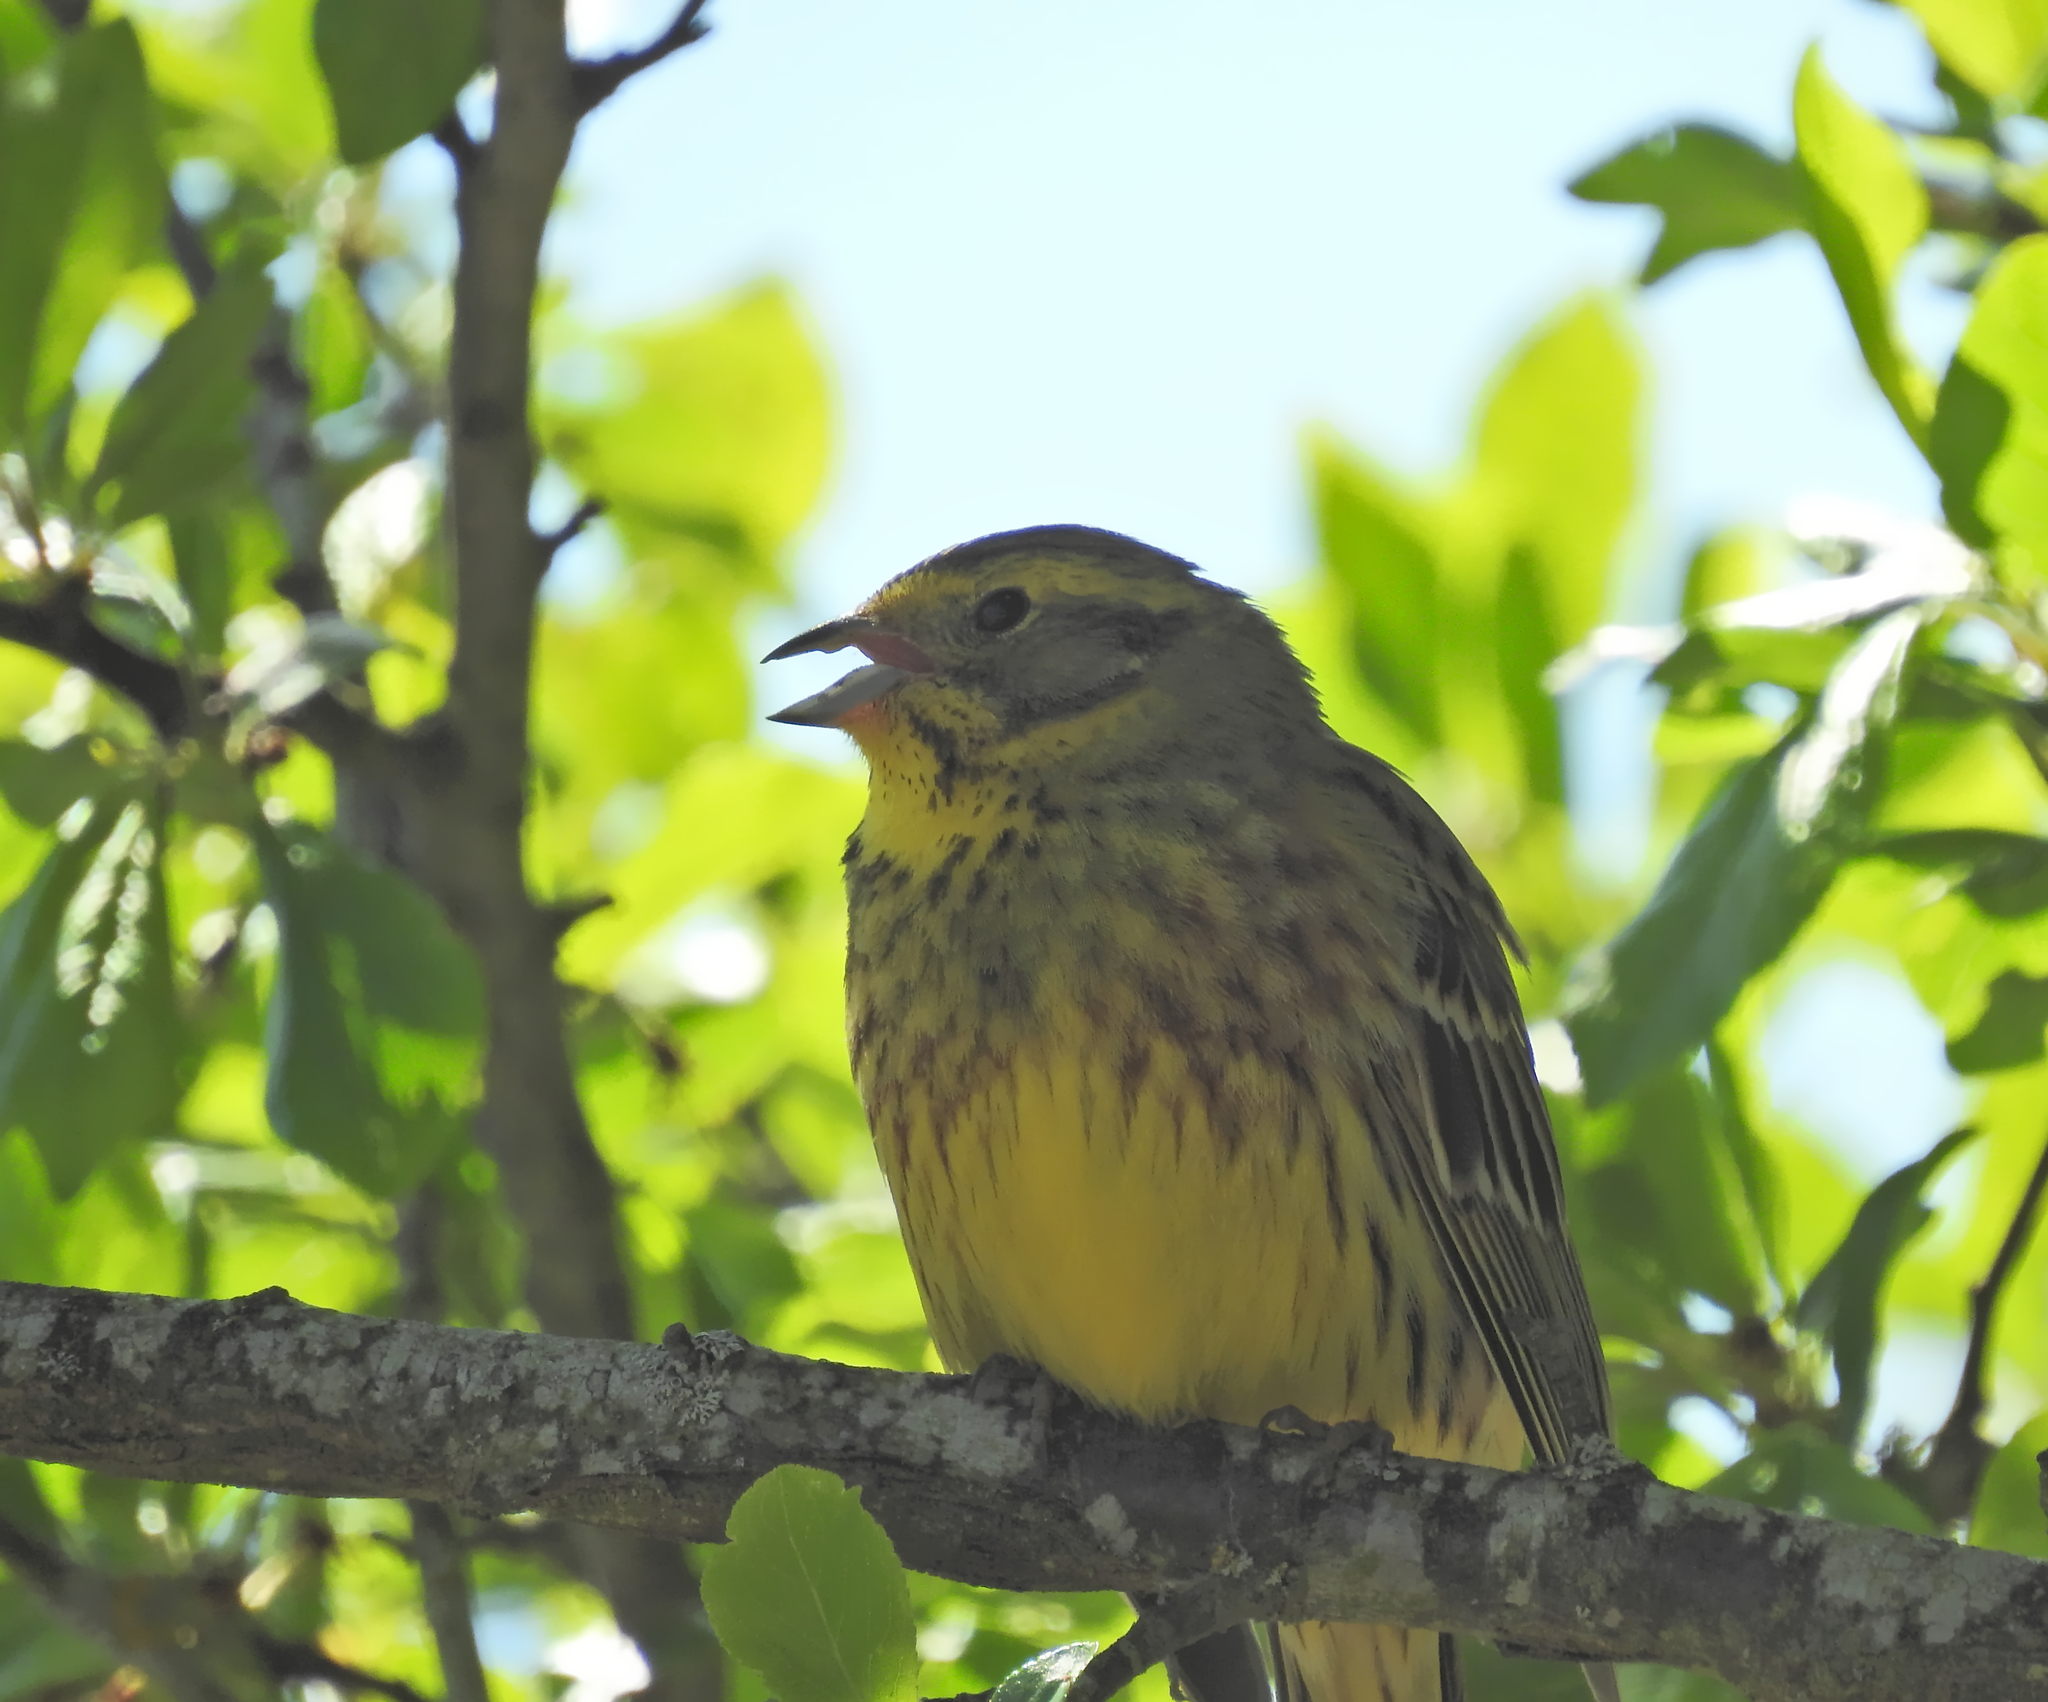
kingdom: Animalia
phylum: Chordata
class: Aves
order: Passeriformes
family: Emberizidae
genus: Emberiza
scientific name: Emberiza citrinella
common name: Yellowhammer
